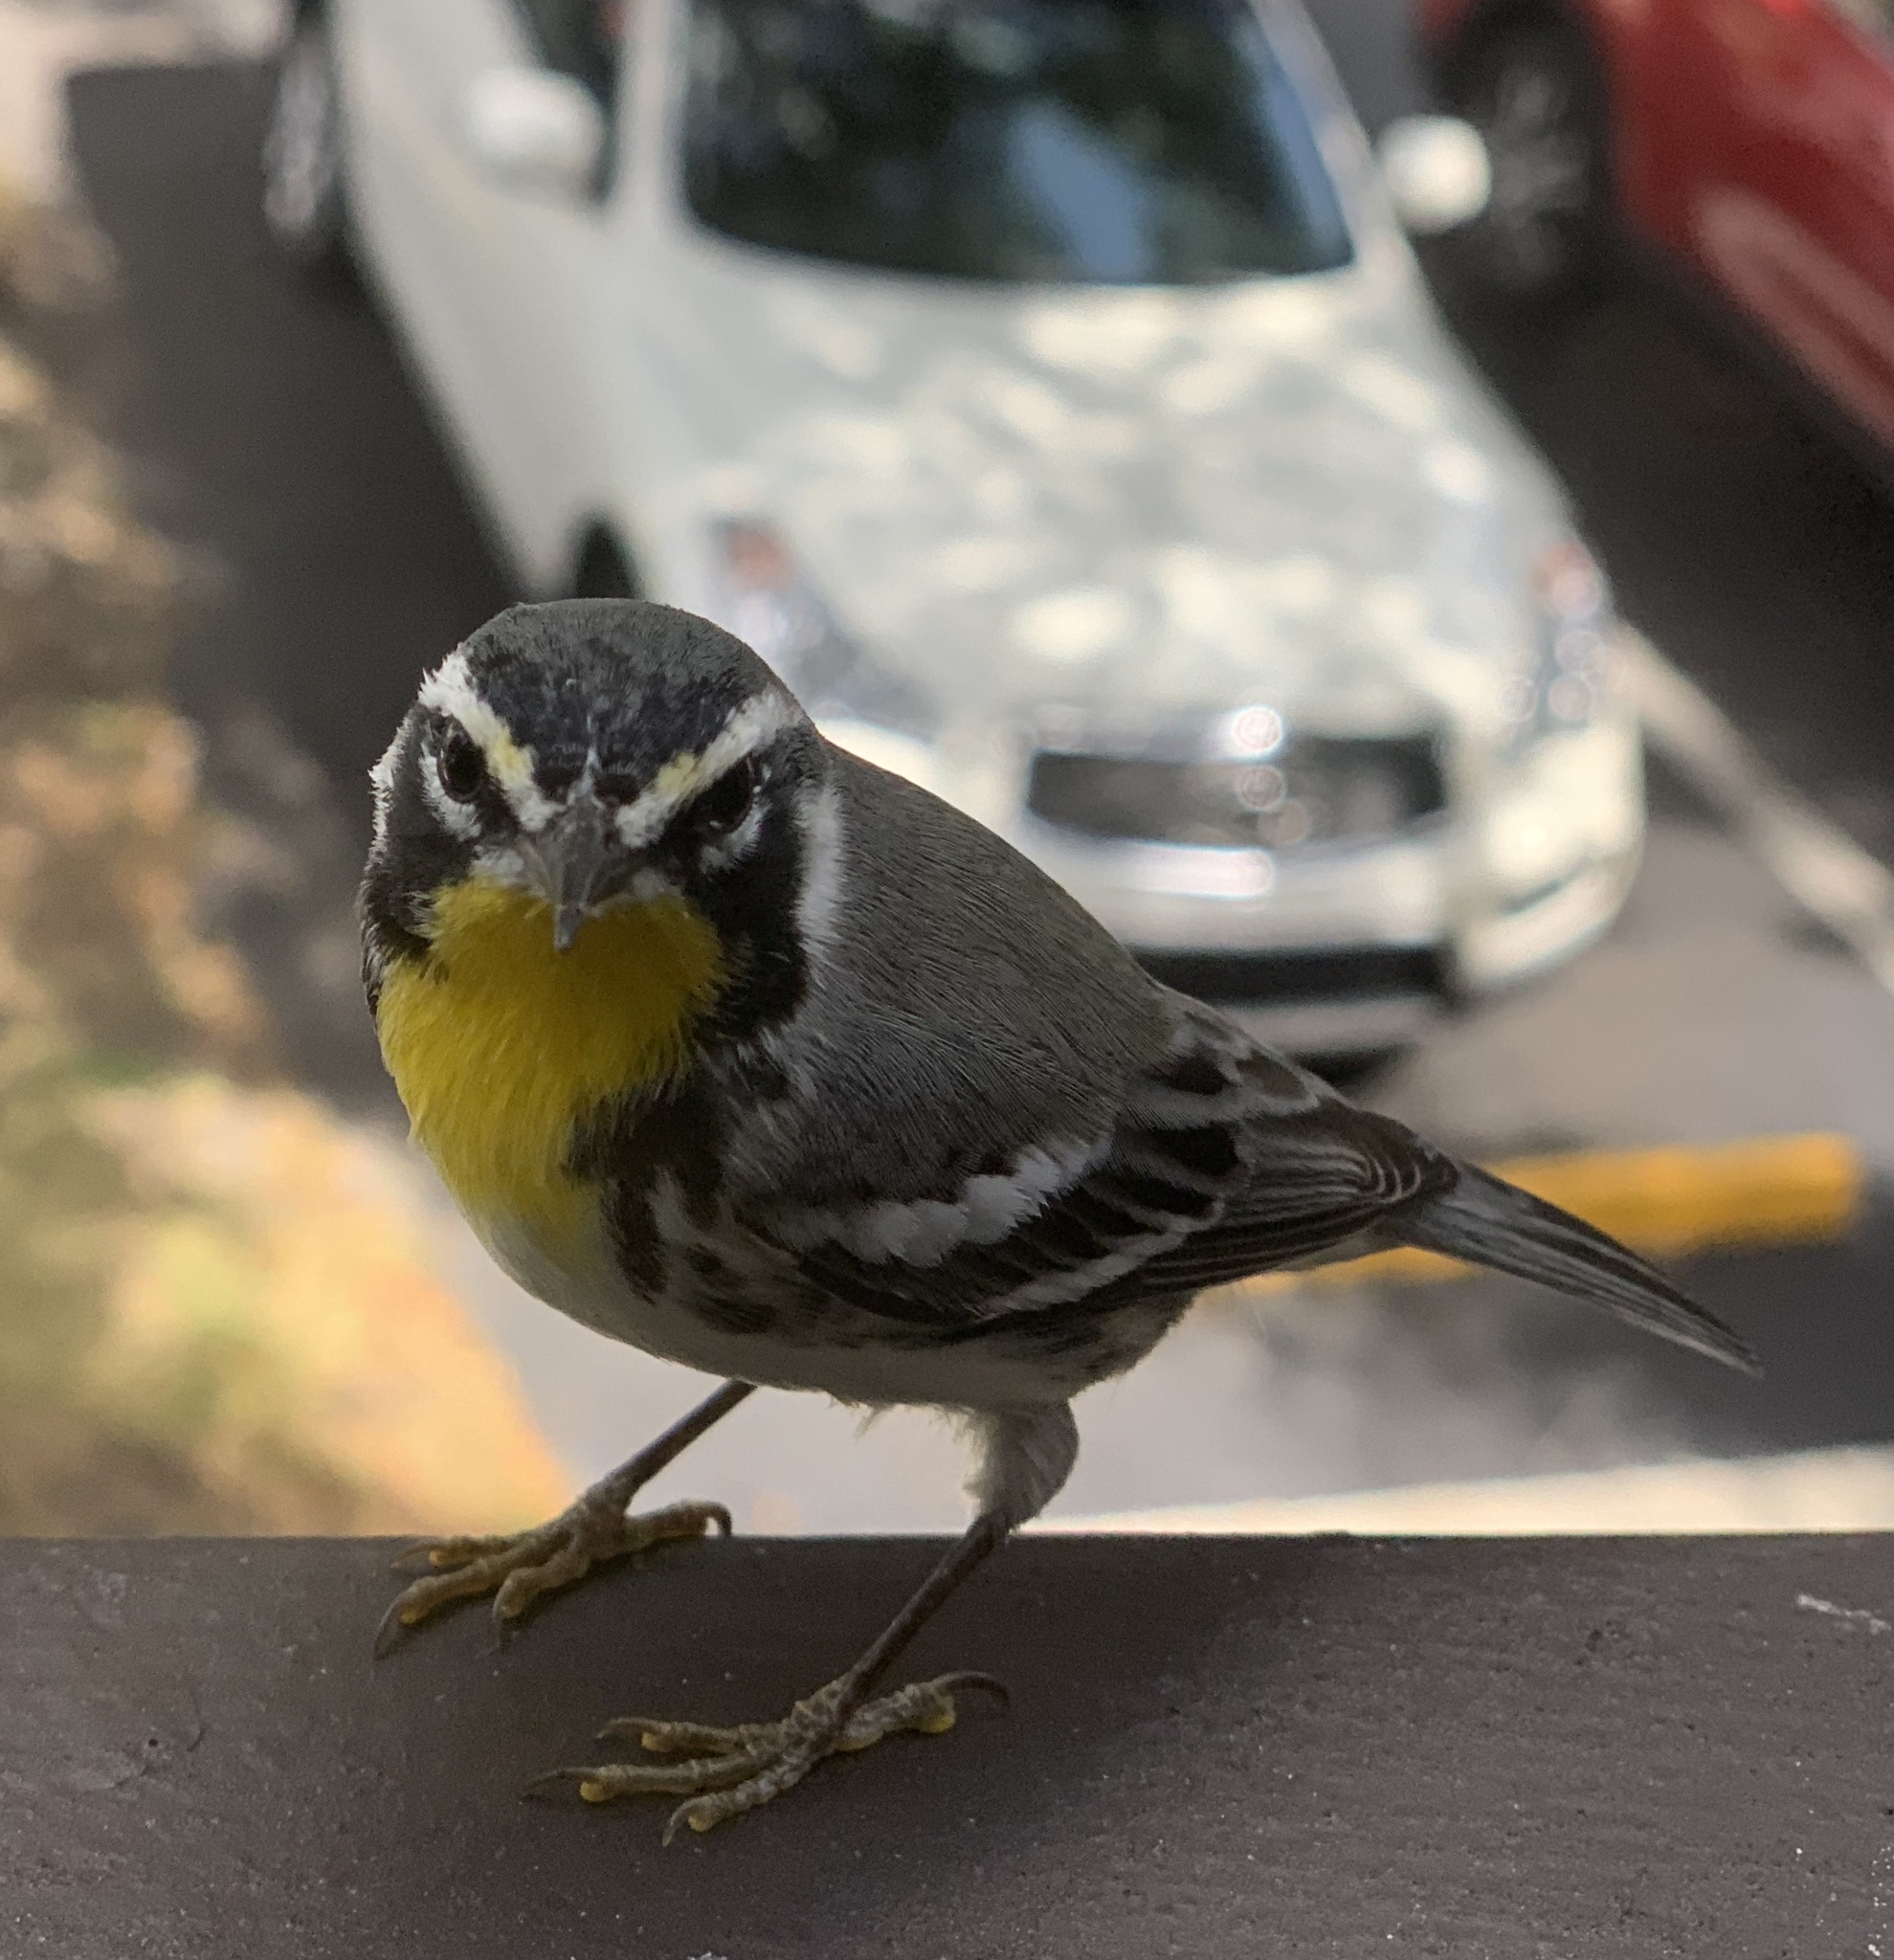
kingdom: Animalia
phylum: Chordata
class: Aves
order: Passeriformes
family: Parulidae
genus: Setophaga
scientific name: Setophaga dominica
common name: Yellow-throated warbler
